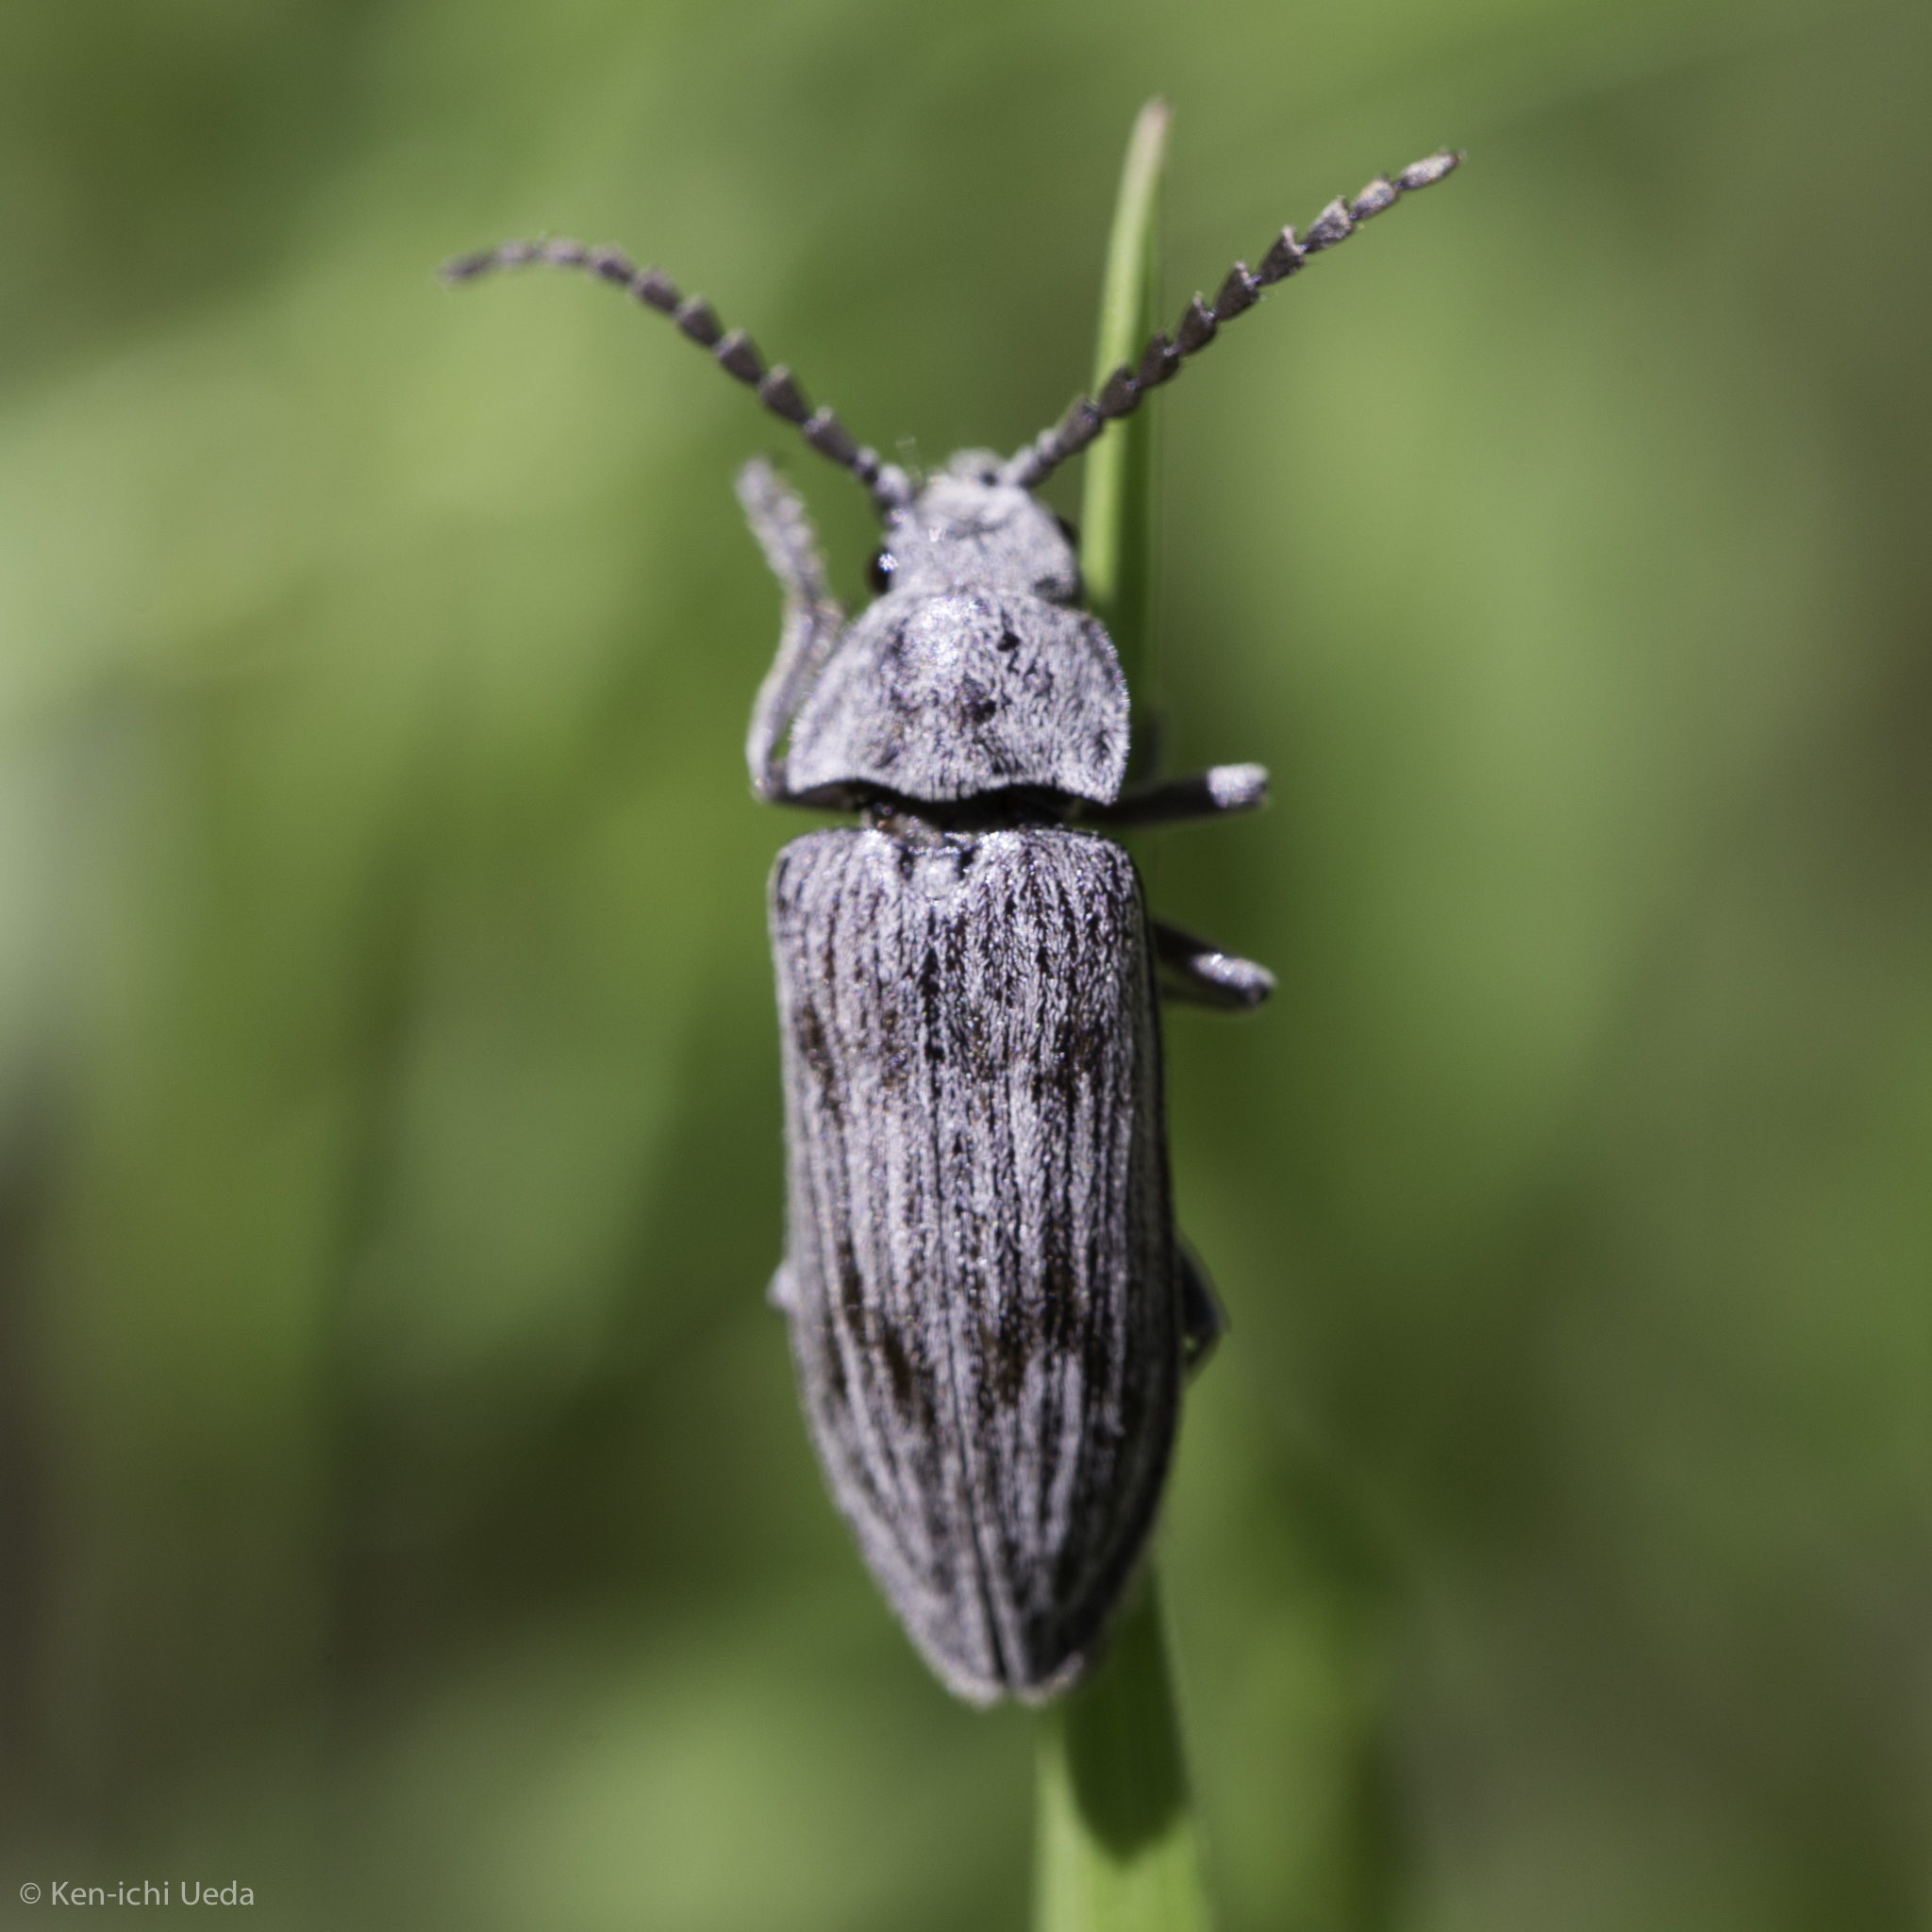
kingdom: Animalia
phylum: Arthropoda
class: Insecta
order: Coleoptera
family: Dascillidae
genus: Dascillus
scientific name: Dascillus davidsoni
